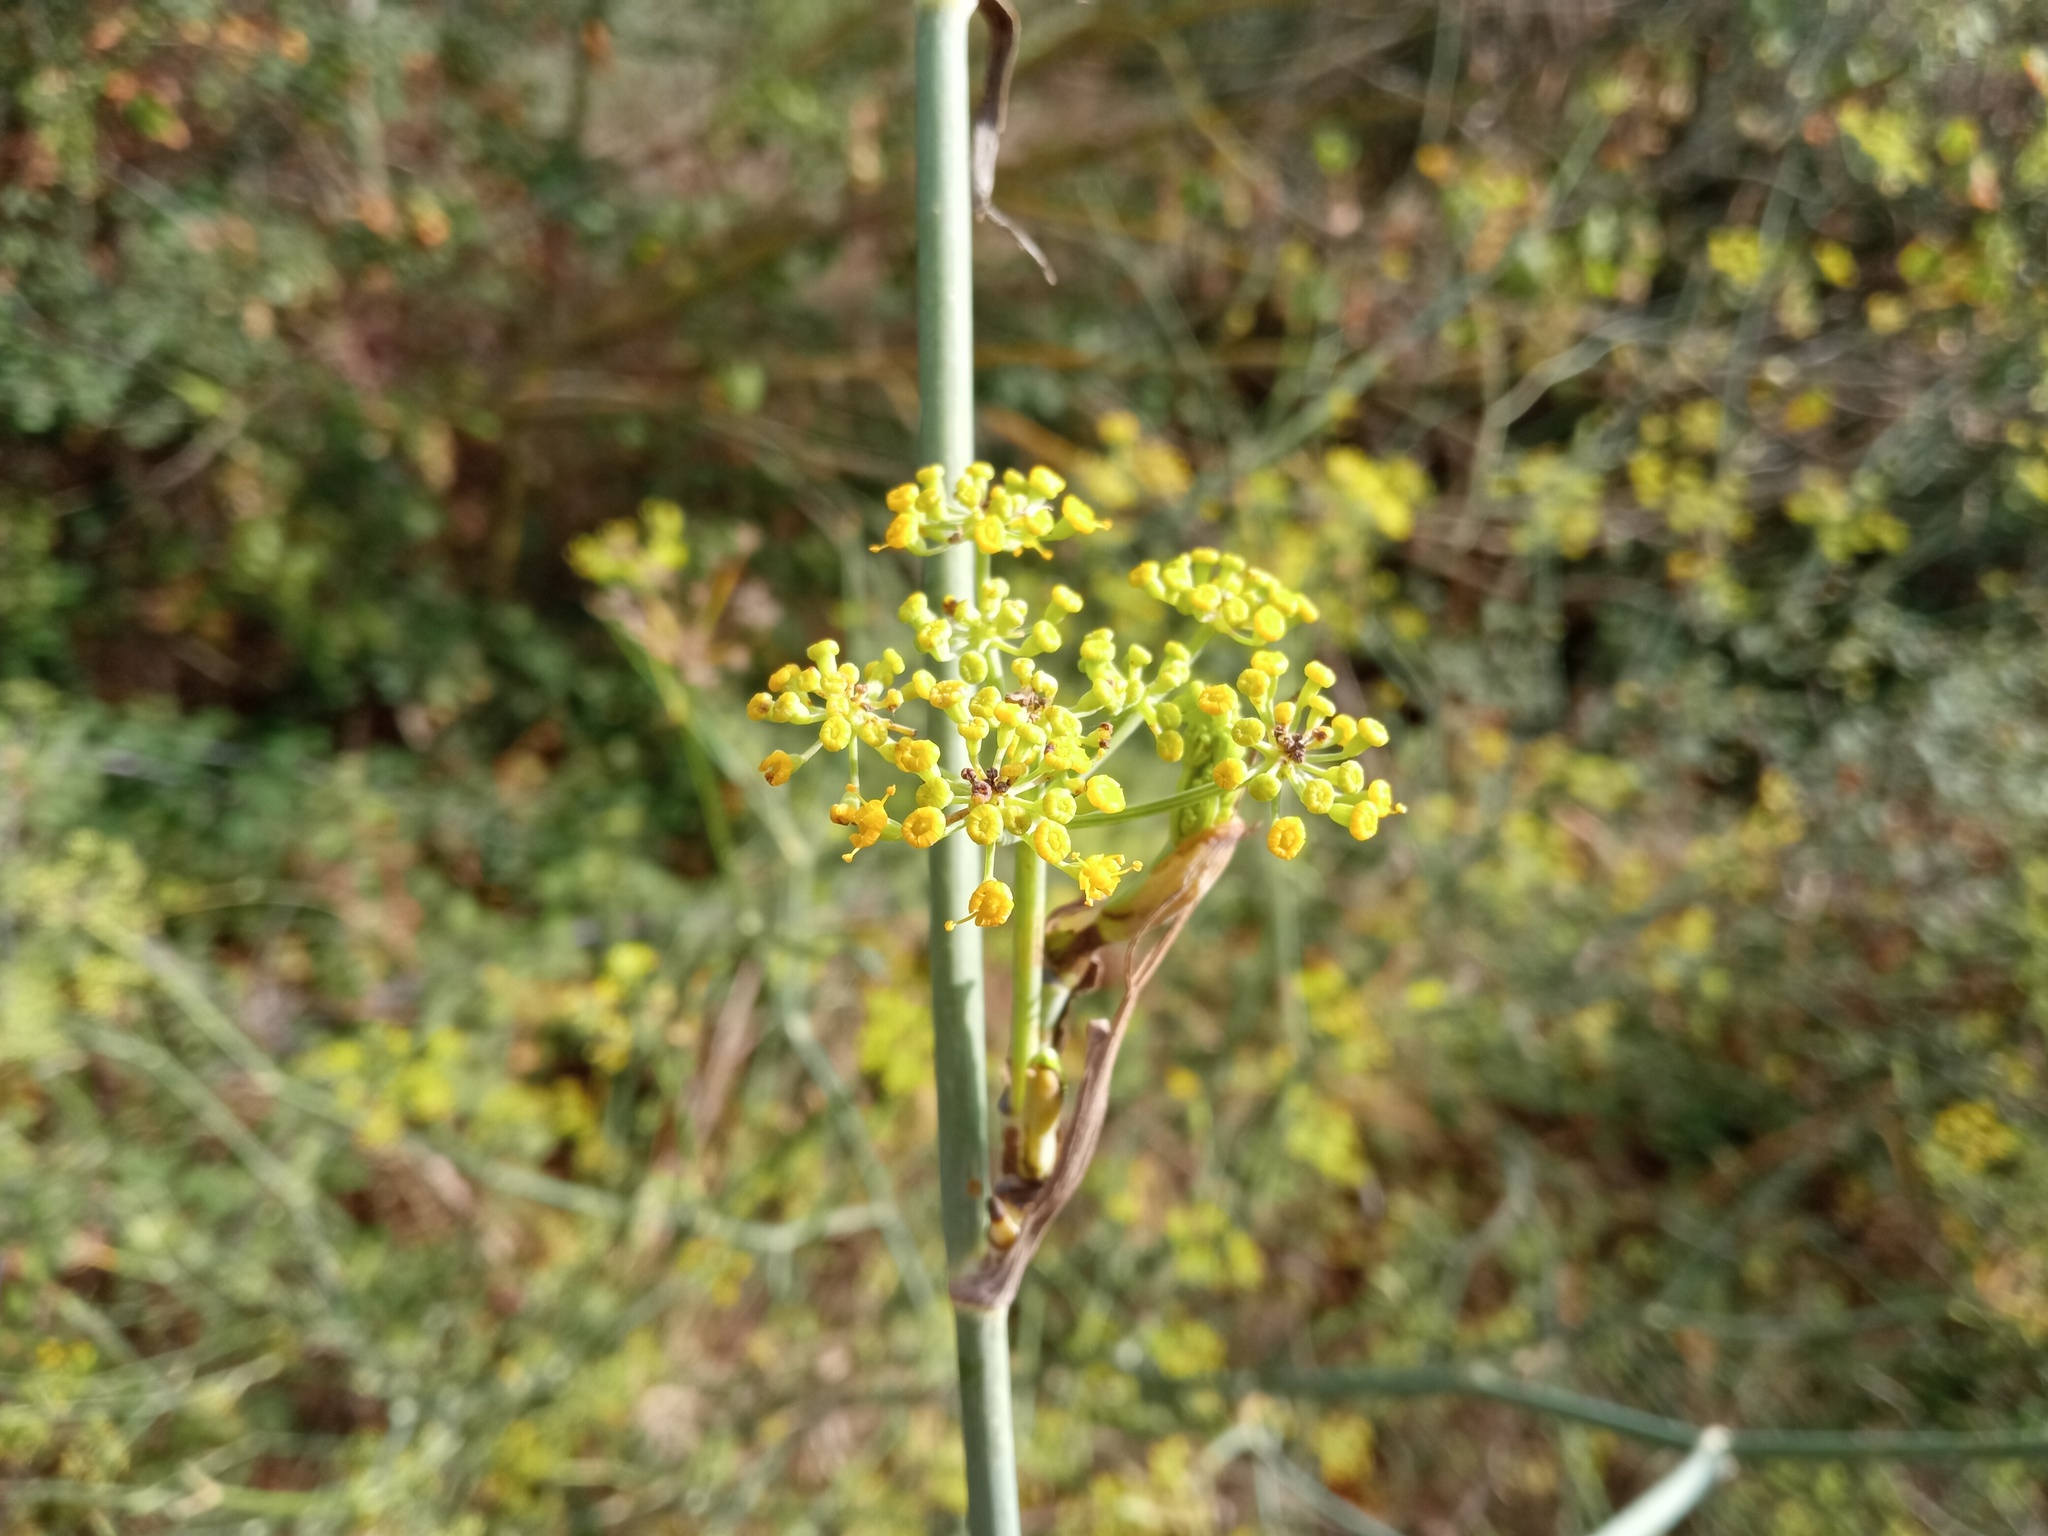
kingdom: Plantae
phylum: Tracheophyta
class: Magnoliopsida
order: Apiales
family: Apiaceae
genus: Foeniculum
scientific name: Foeniculum vulgare
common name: Fennel
